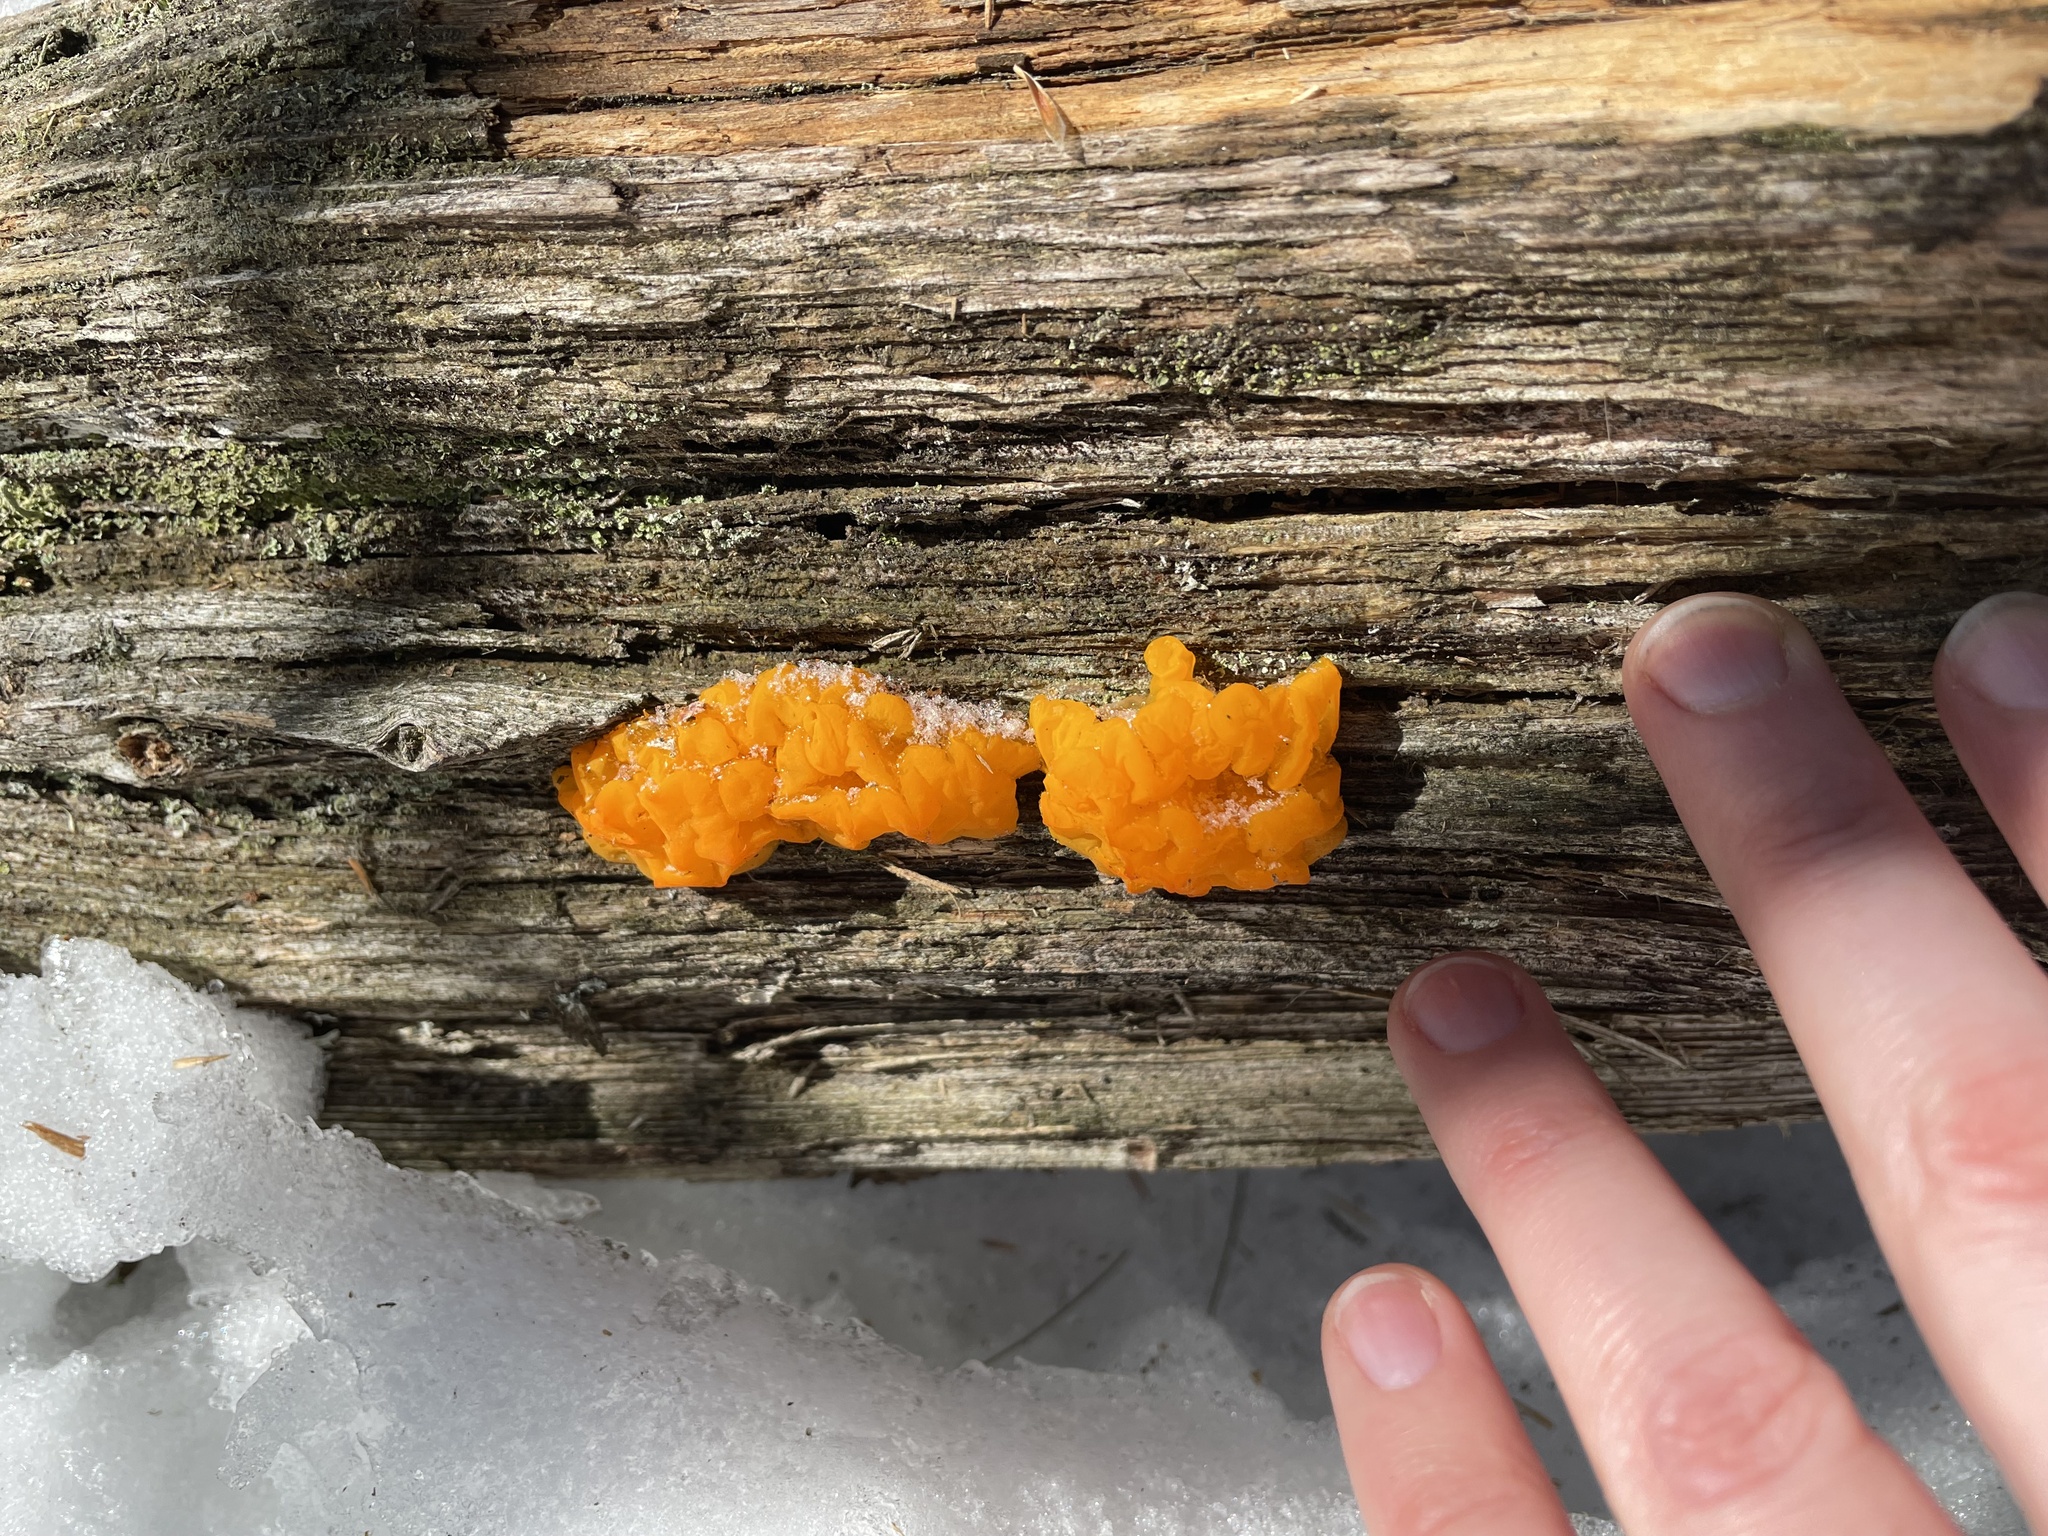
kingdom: Fungi
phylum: Basidiomycota
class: Dacrymycetes
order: Dacrymycetales
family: Dacrymycetaceae
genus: Dacrymyces
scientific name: Dacrymyces chrysospermus
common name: Orange jelly spot
